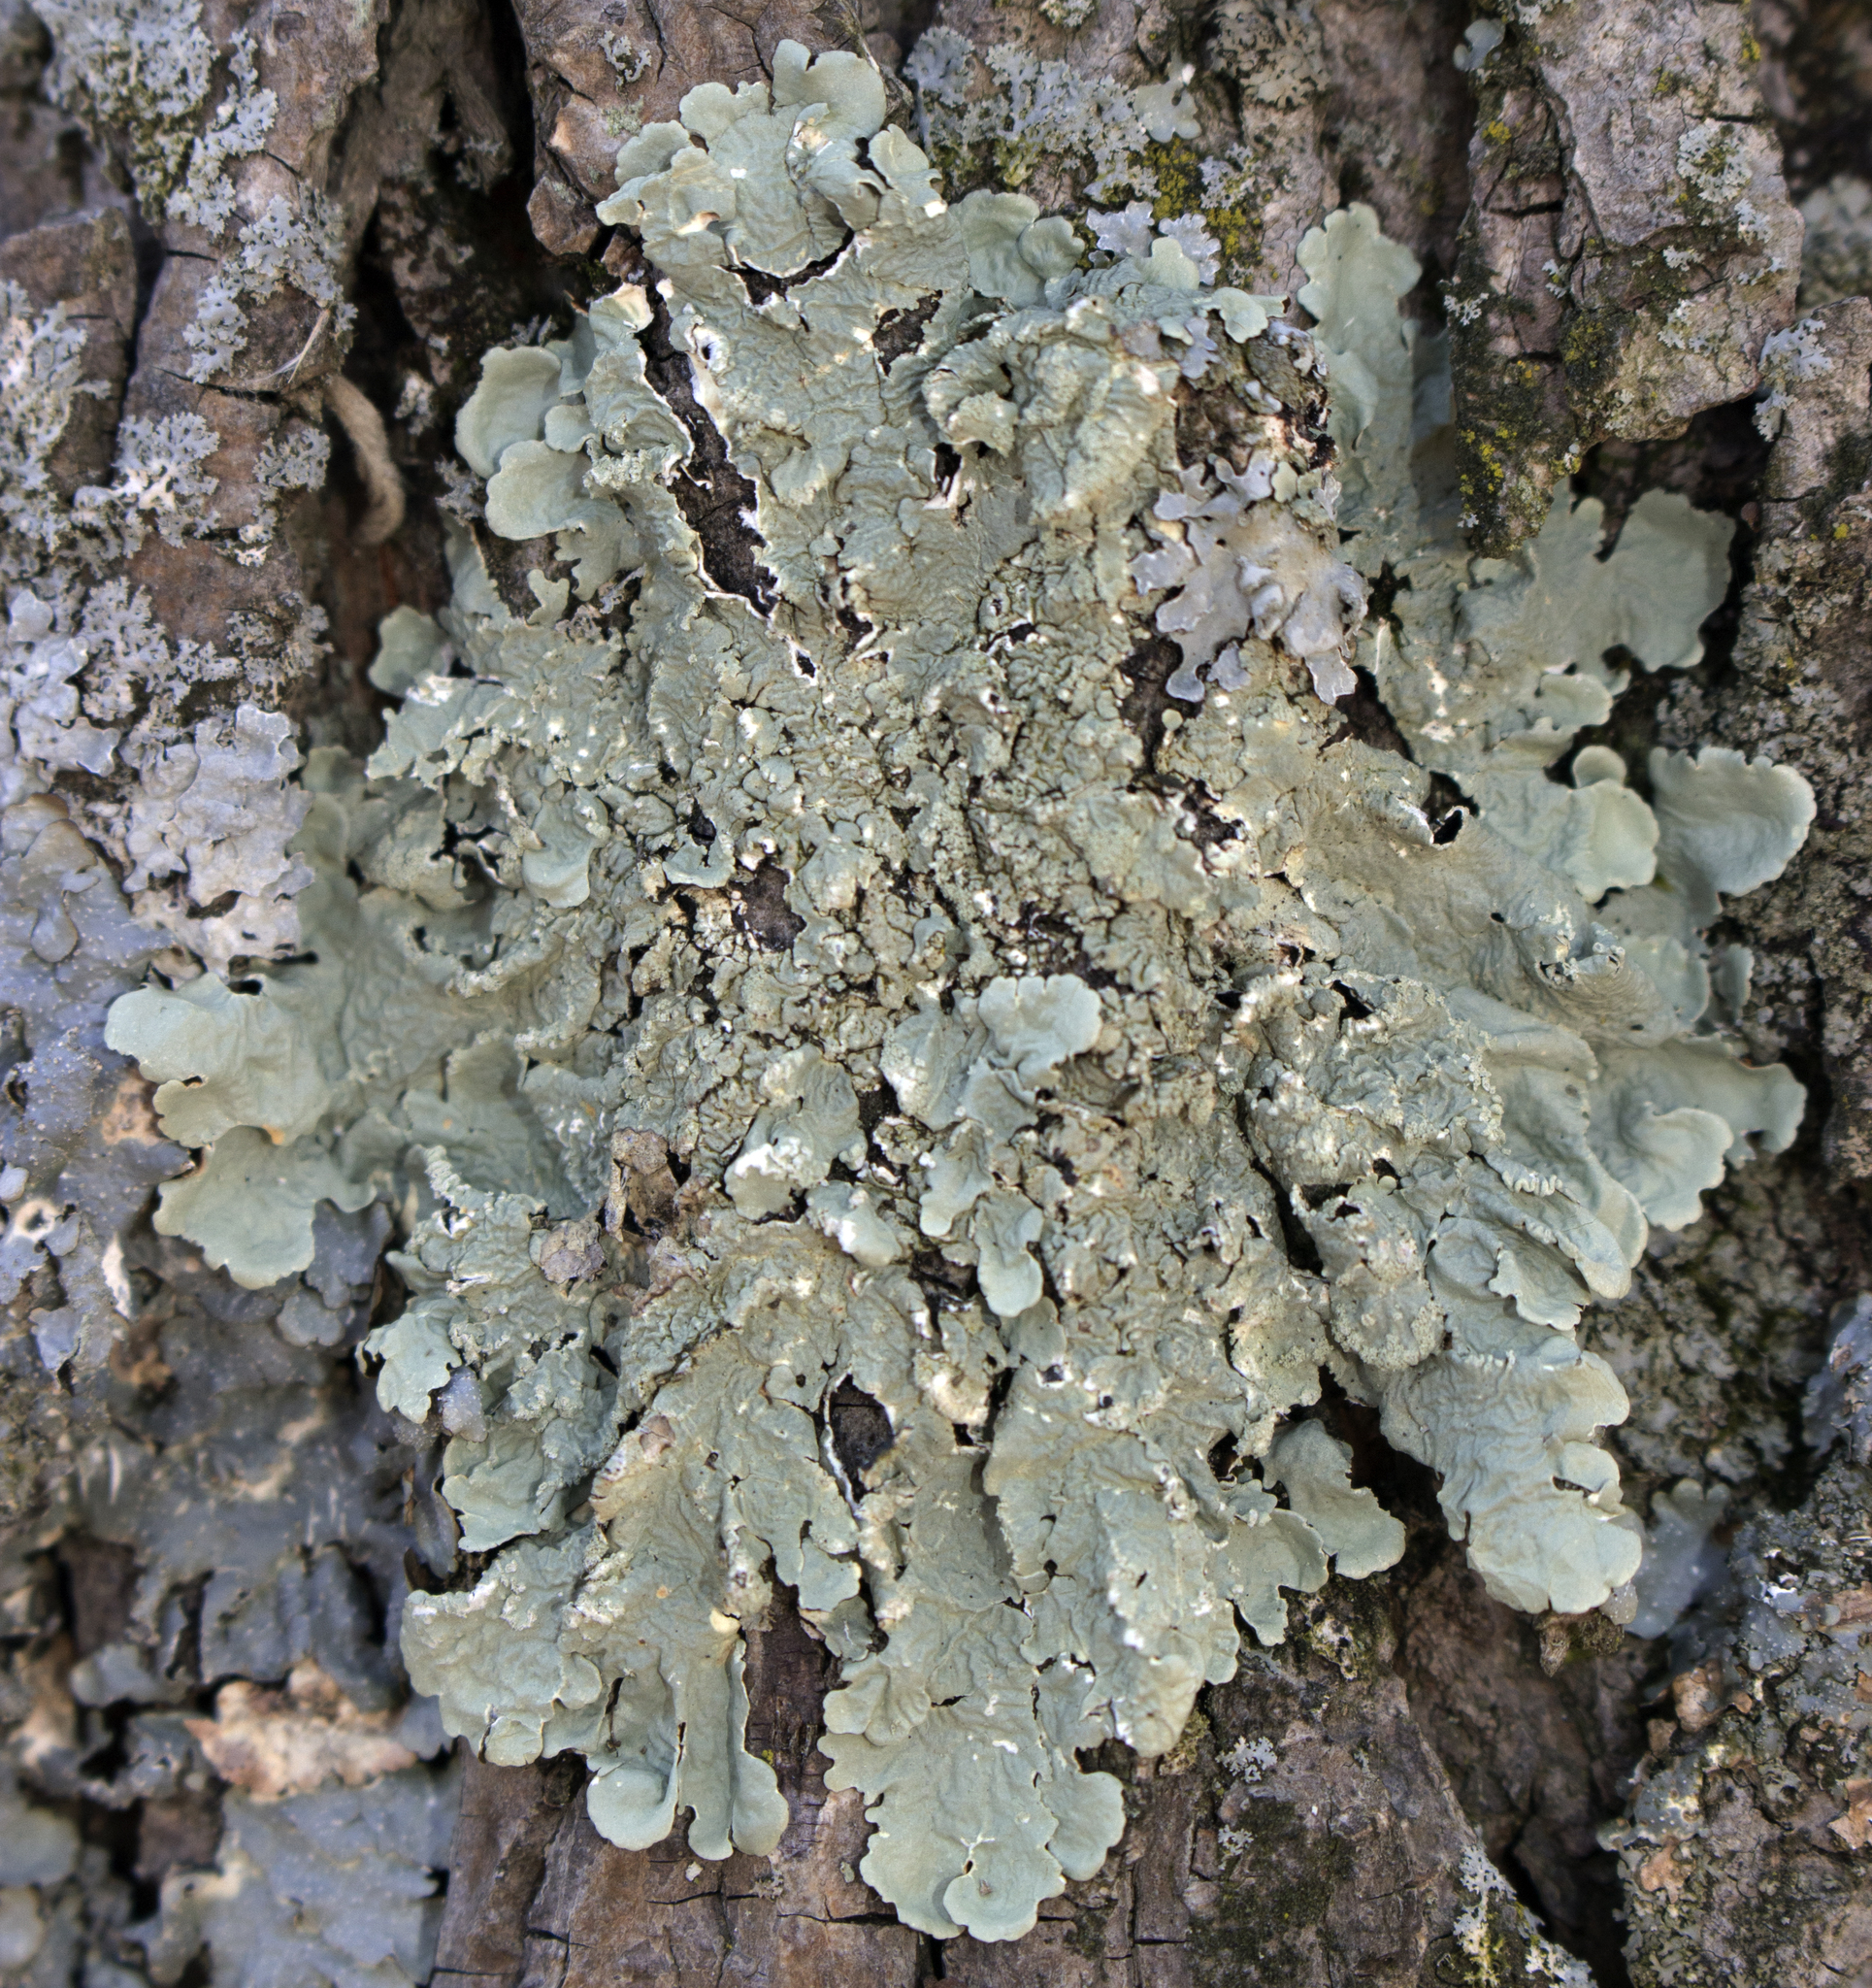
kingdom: Fungi
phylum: Ascomycota
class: Lecanoromycetes
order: Lecanorales
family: Parmeliaceae
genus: Flavoparmelia
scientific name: Flavoparmelia caperata
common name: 40-mile per hour lichen
